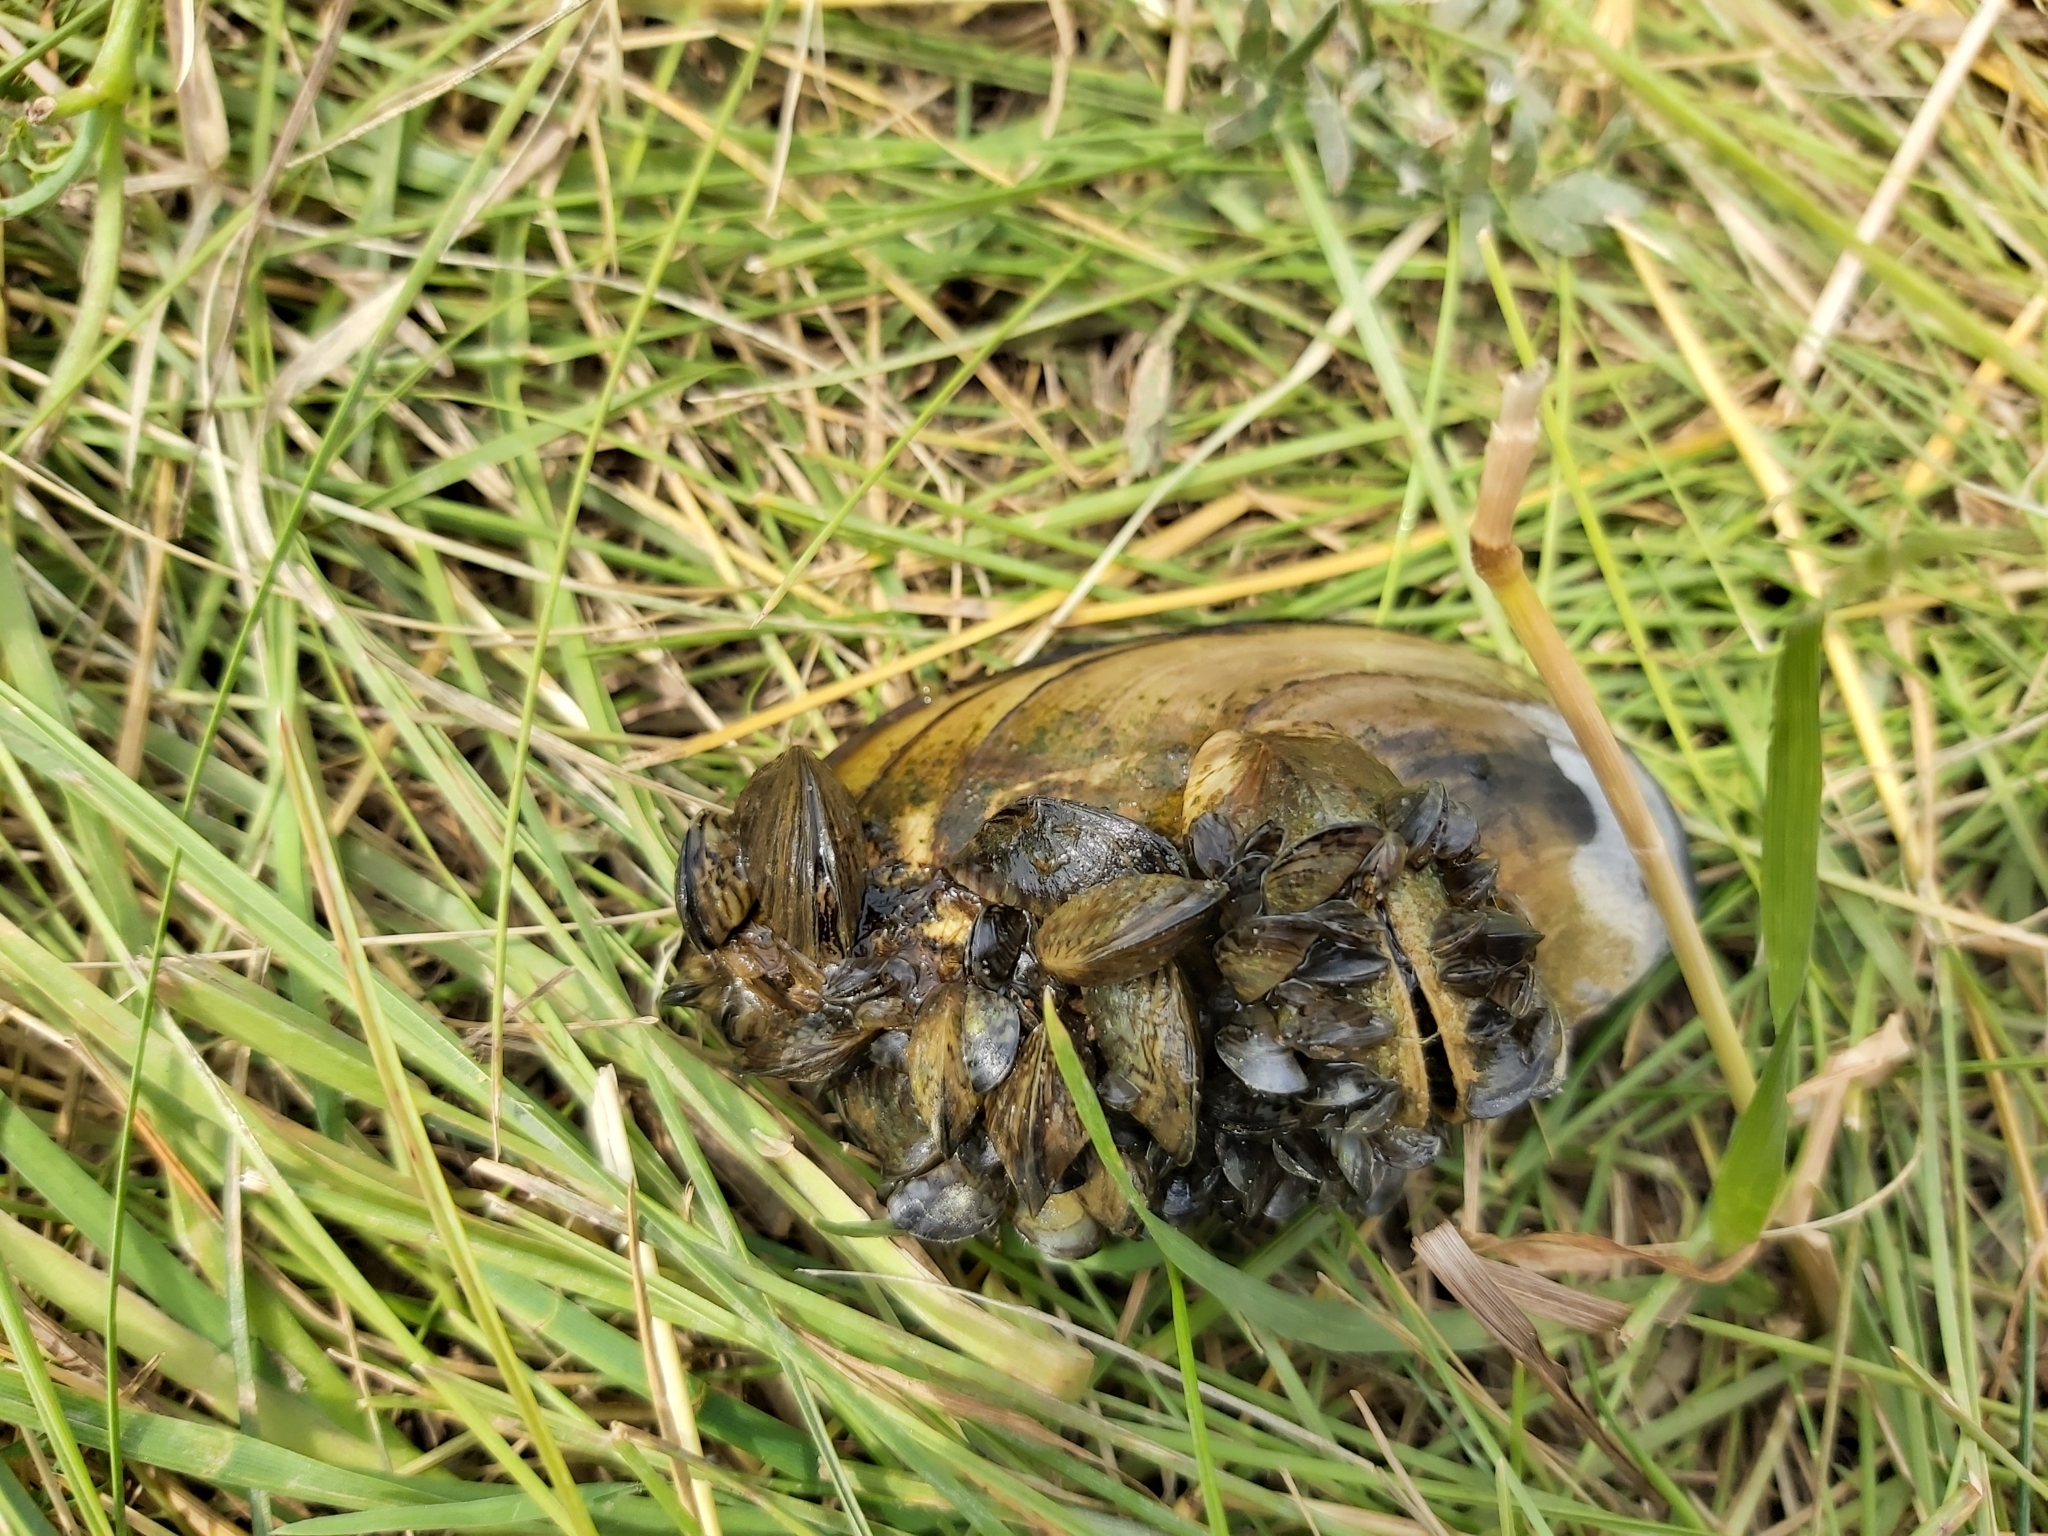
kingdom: Animalia
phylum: Mollusca
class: Bivalvia
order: Myida
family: Dreissenidae
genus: Dreissena
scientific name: Dreissena polymorpha
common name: Zebra mussel
